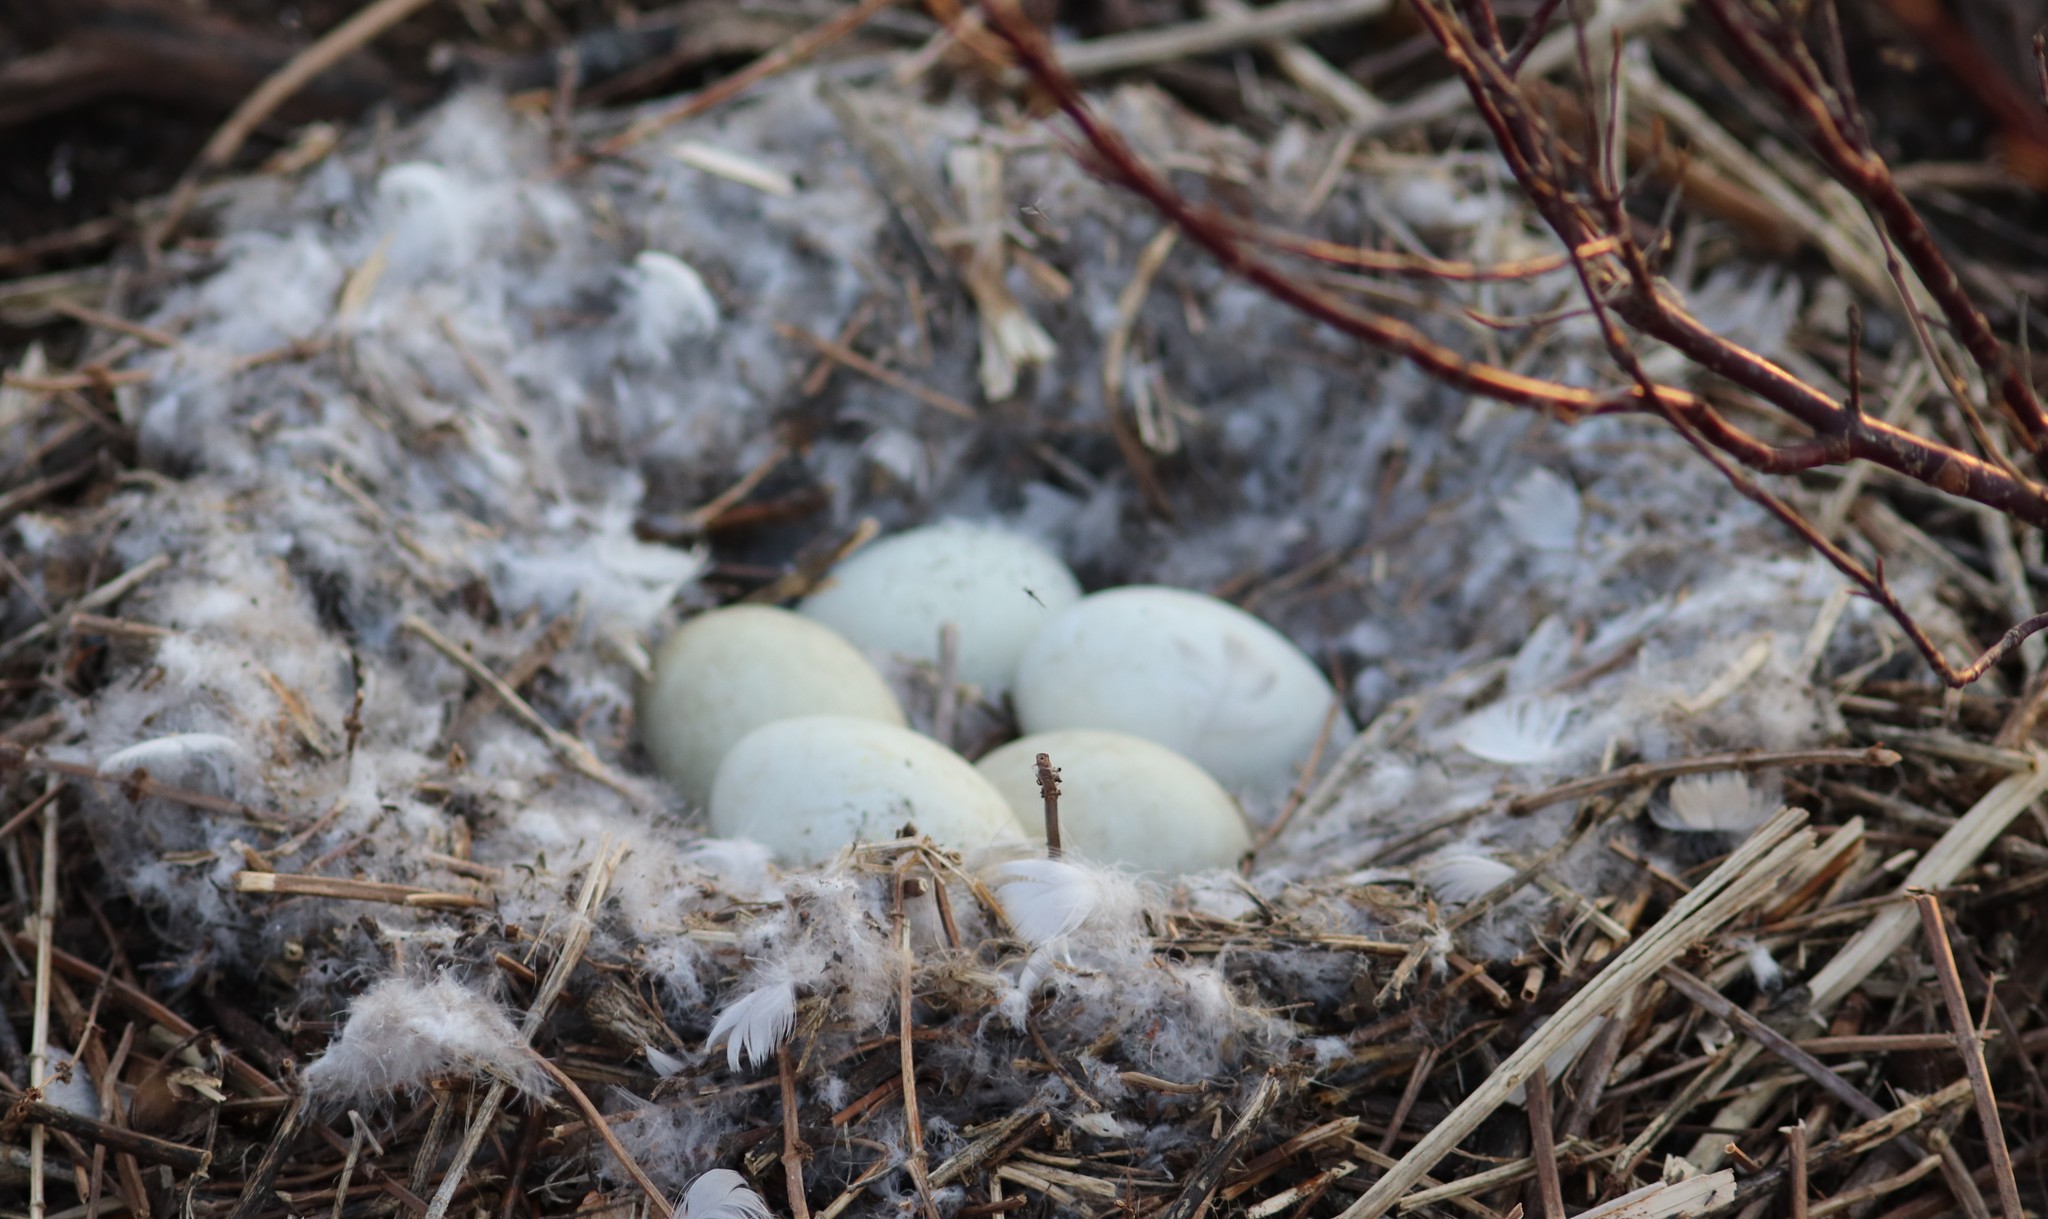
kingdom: Animalia
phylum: Chordata
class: Aves
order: Anseriformes
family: Anatidae
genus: Branta
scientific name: Branta canadensis
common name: Canada goose
